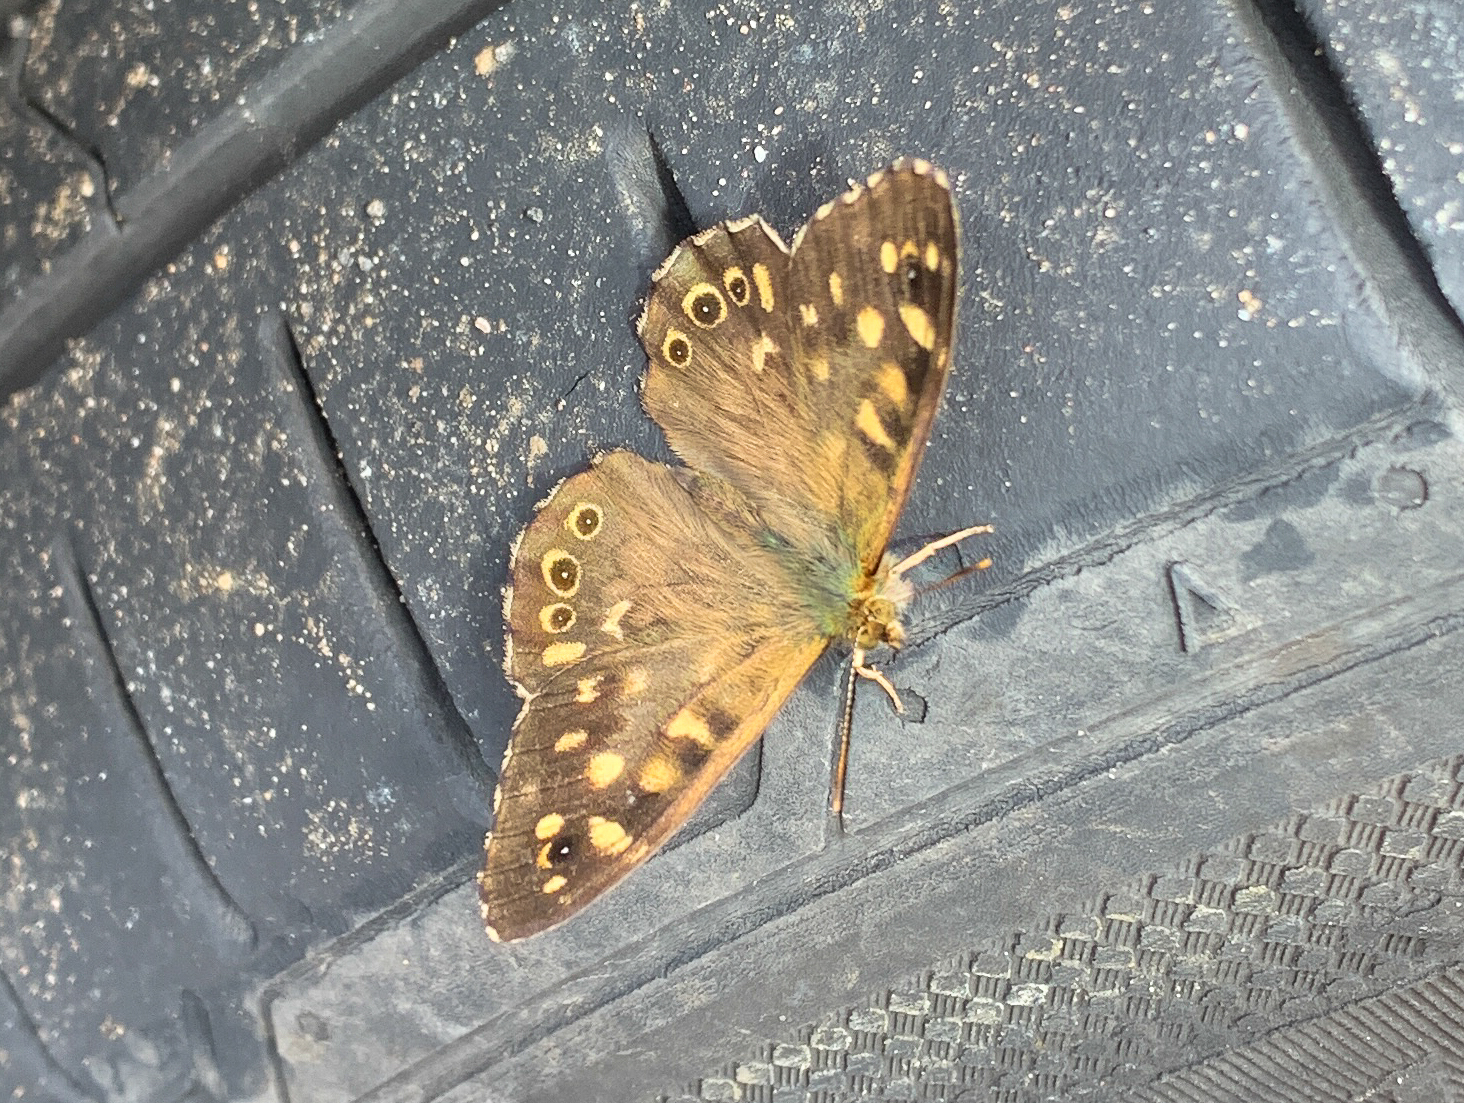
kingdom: Animalia
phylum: Arthropoda
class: Insecta
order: Lepidoptera
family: Nymphalidae
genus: Pararge
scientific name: Pararge aegeria
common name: Speckled wood
